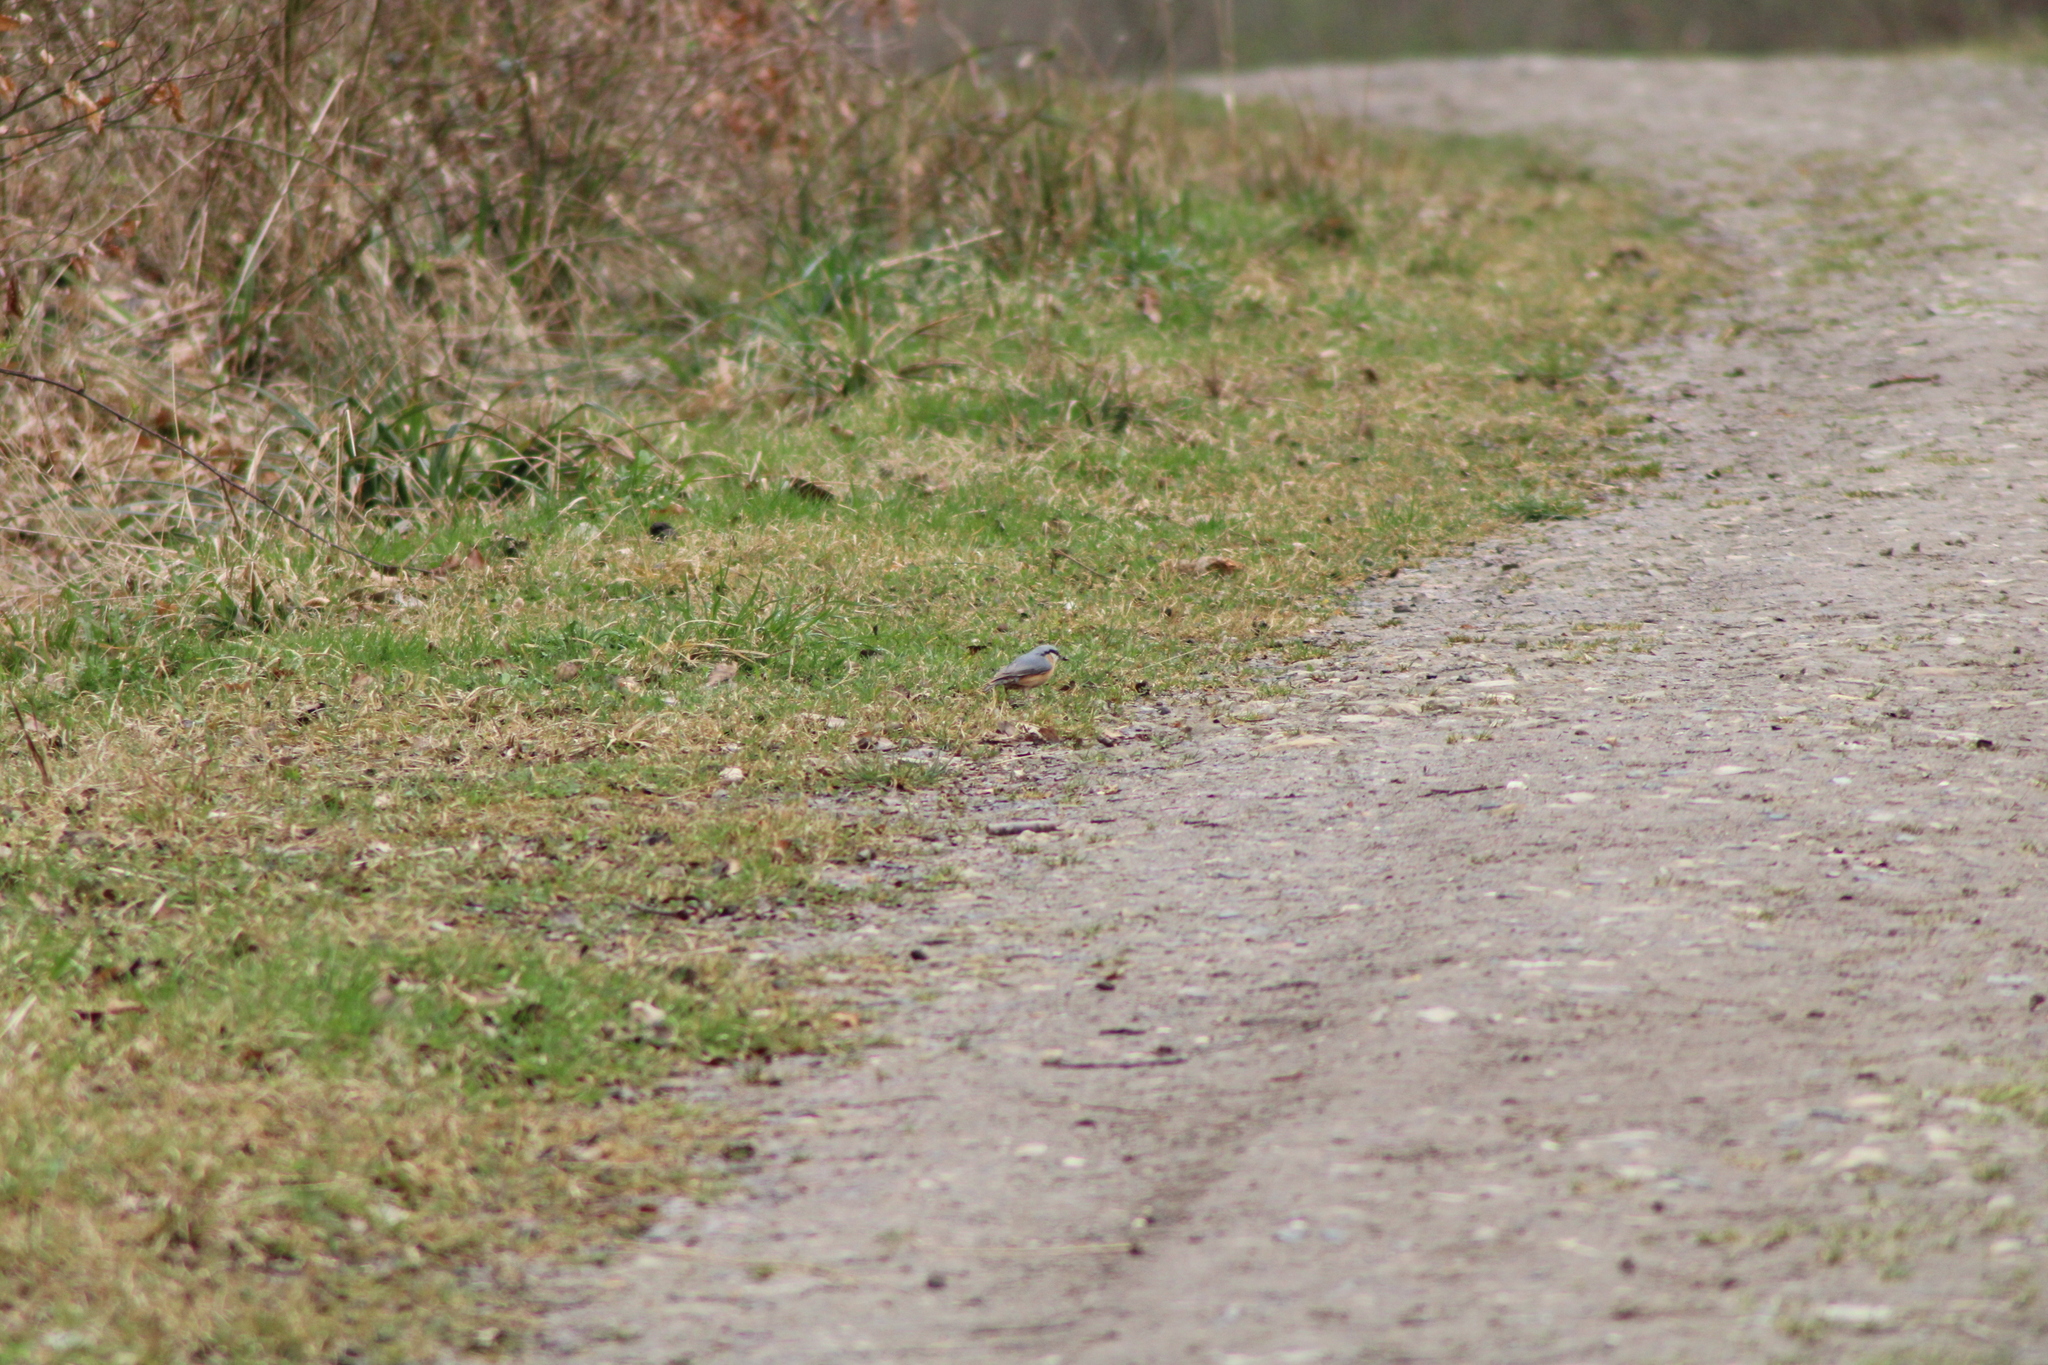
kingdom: Animalia
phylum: Chordata
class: Aves
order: Passeriformes
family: Sittidae
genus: Sitta
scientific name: Sitta europaea
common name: Eurasian nuthatch
